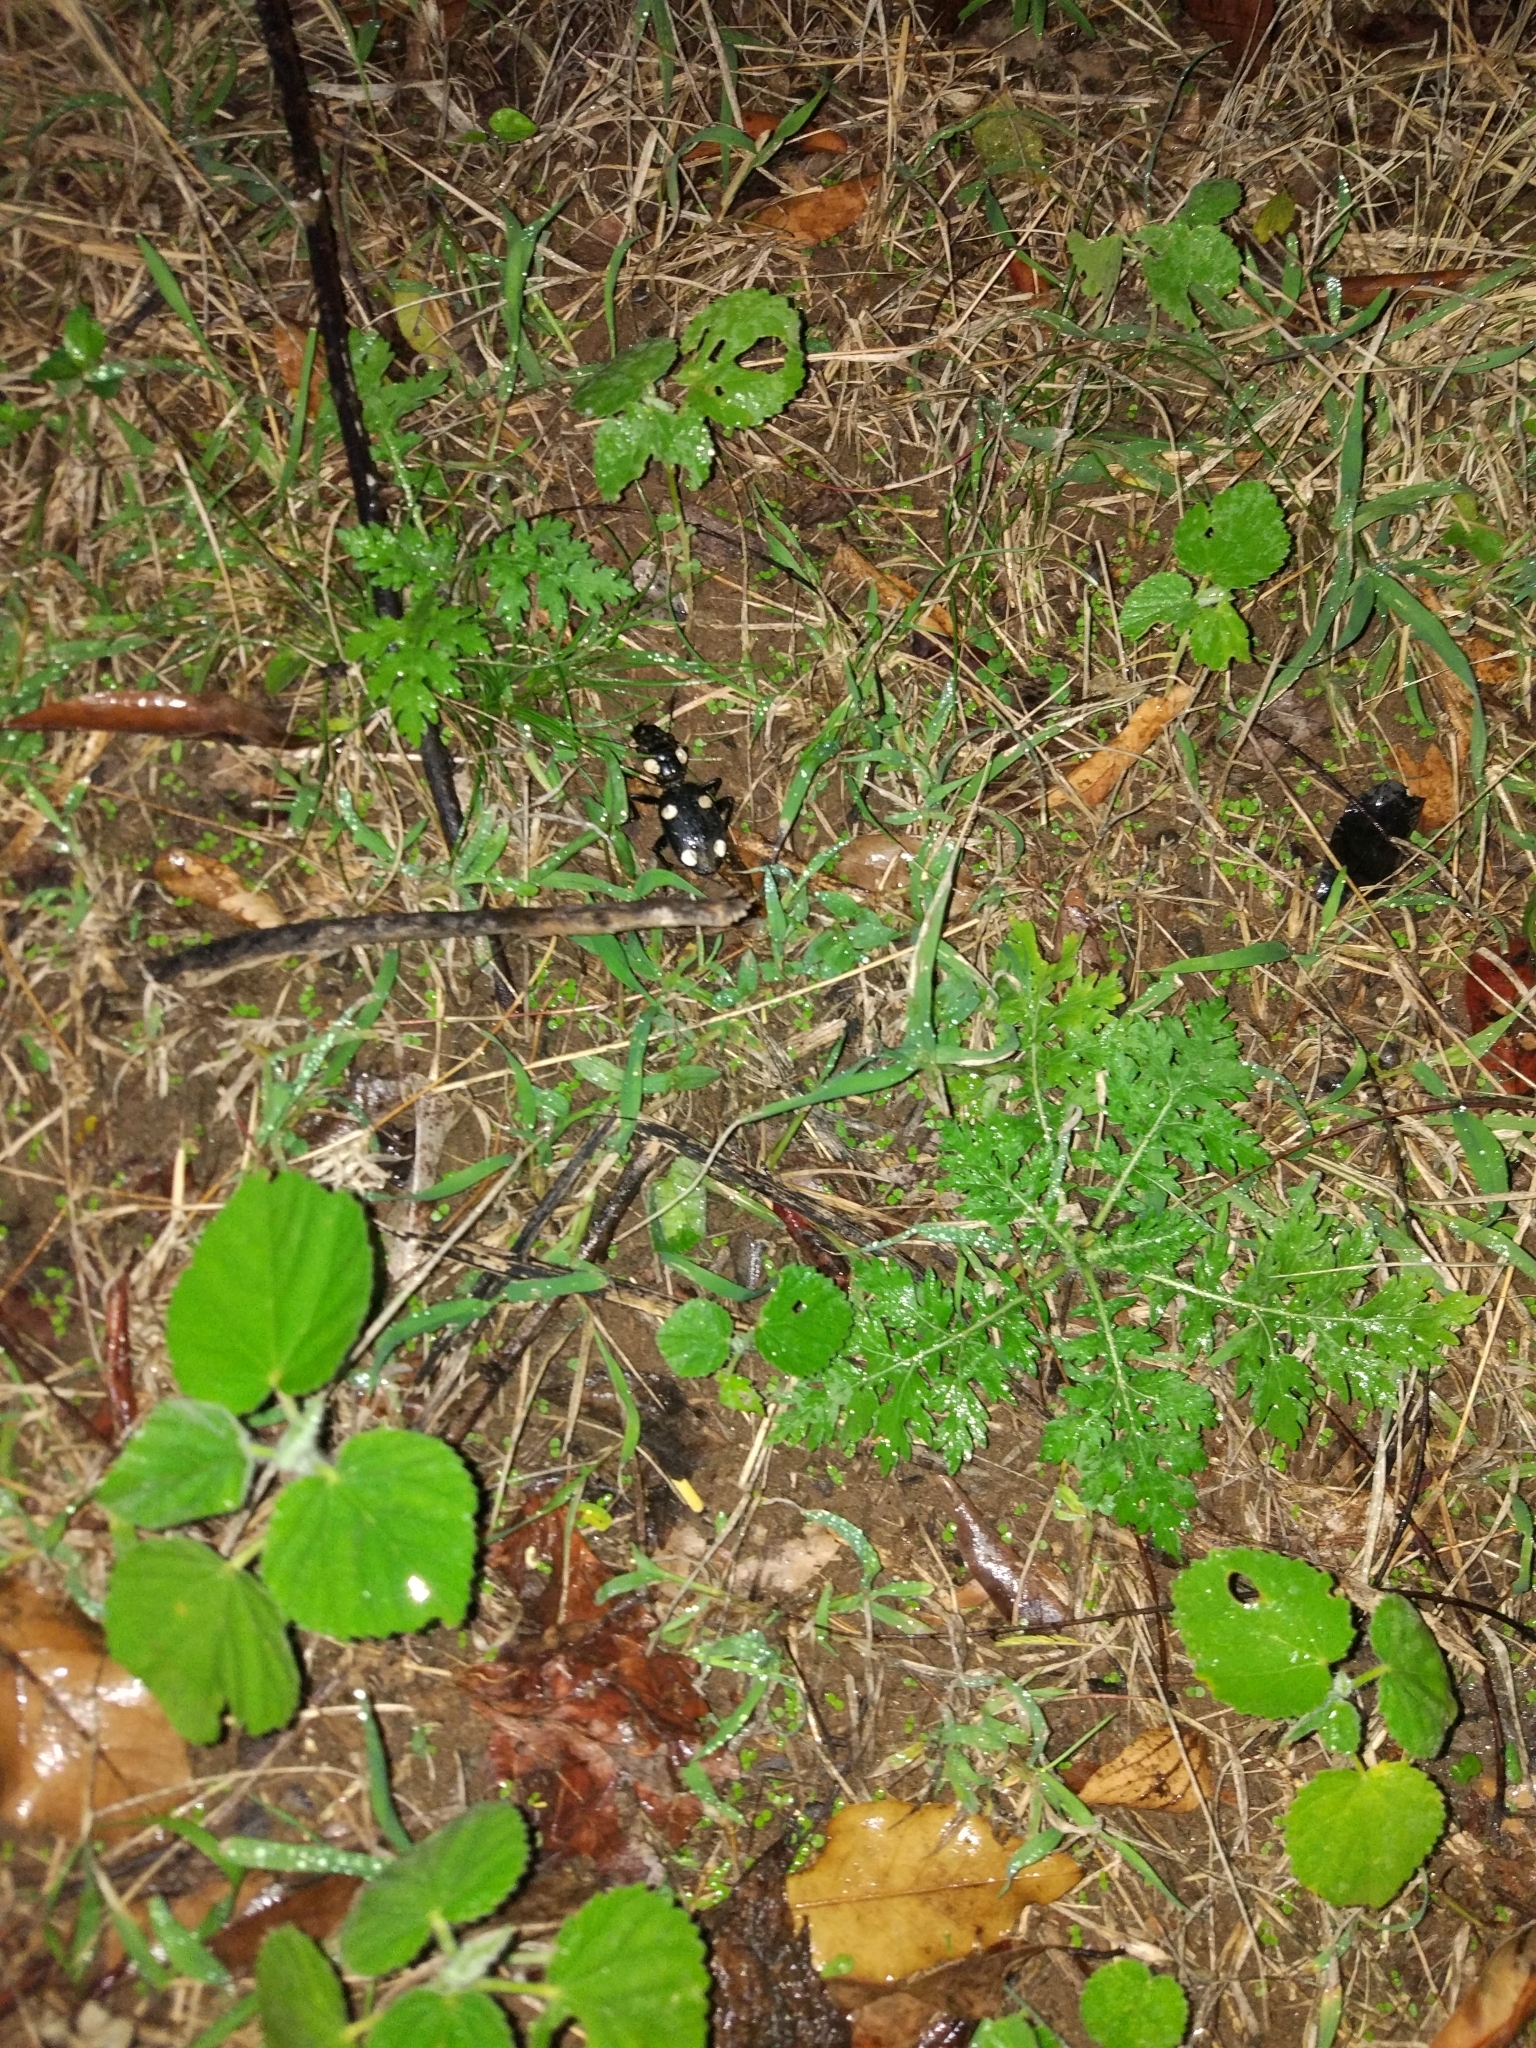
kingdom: Animalia
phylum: Arthropoda
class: Insecta
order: Coleoptera
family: Carabidae
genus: Anthia
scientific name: Anthia sexguttata
